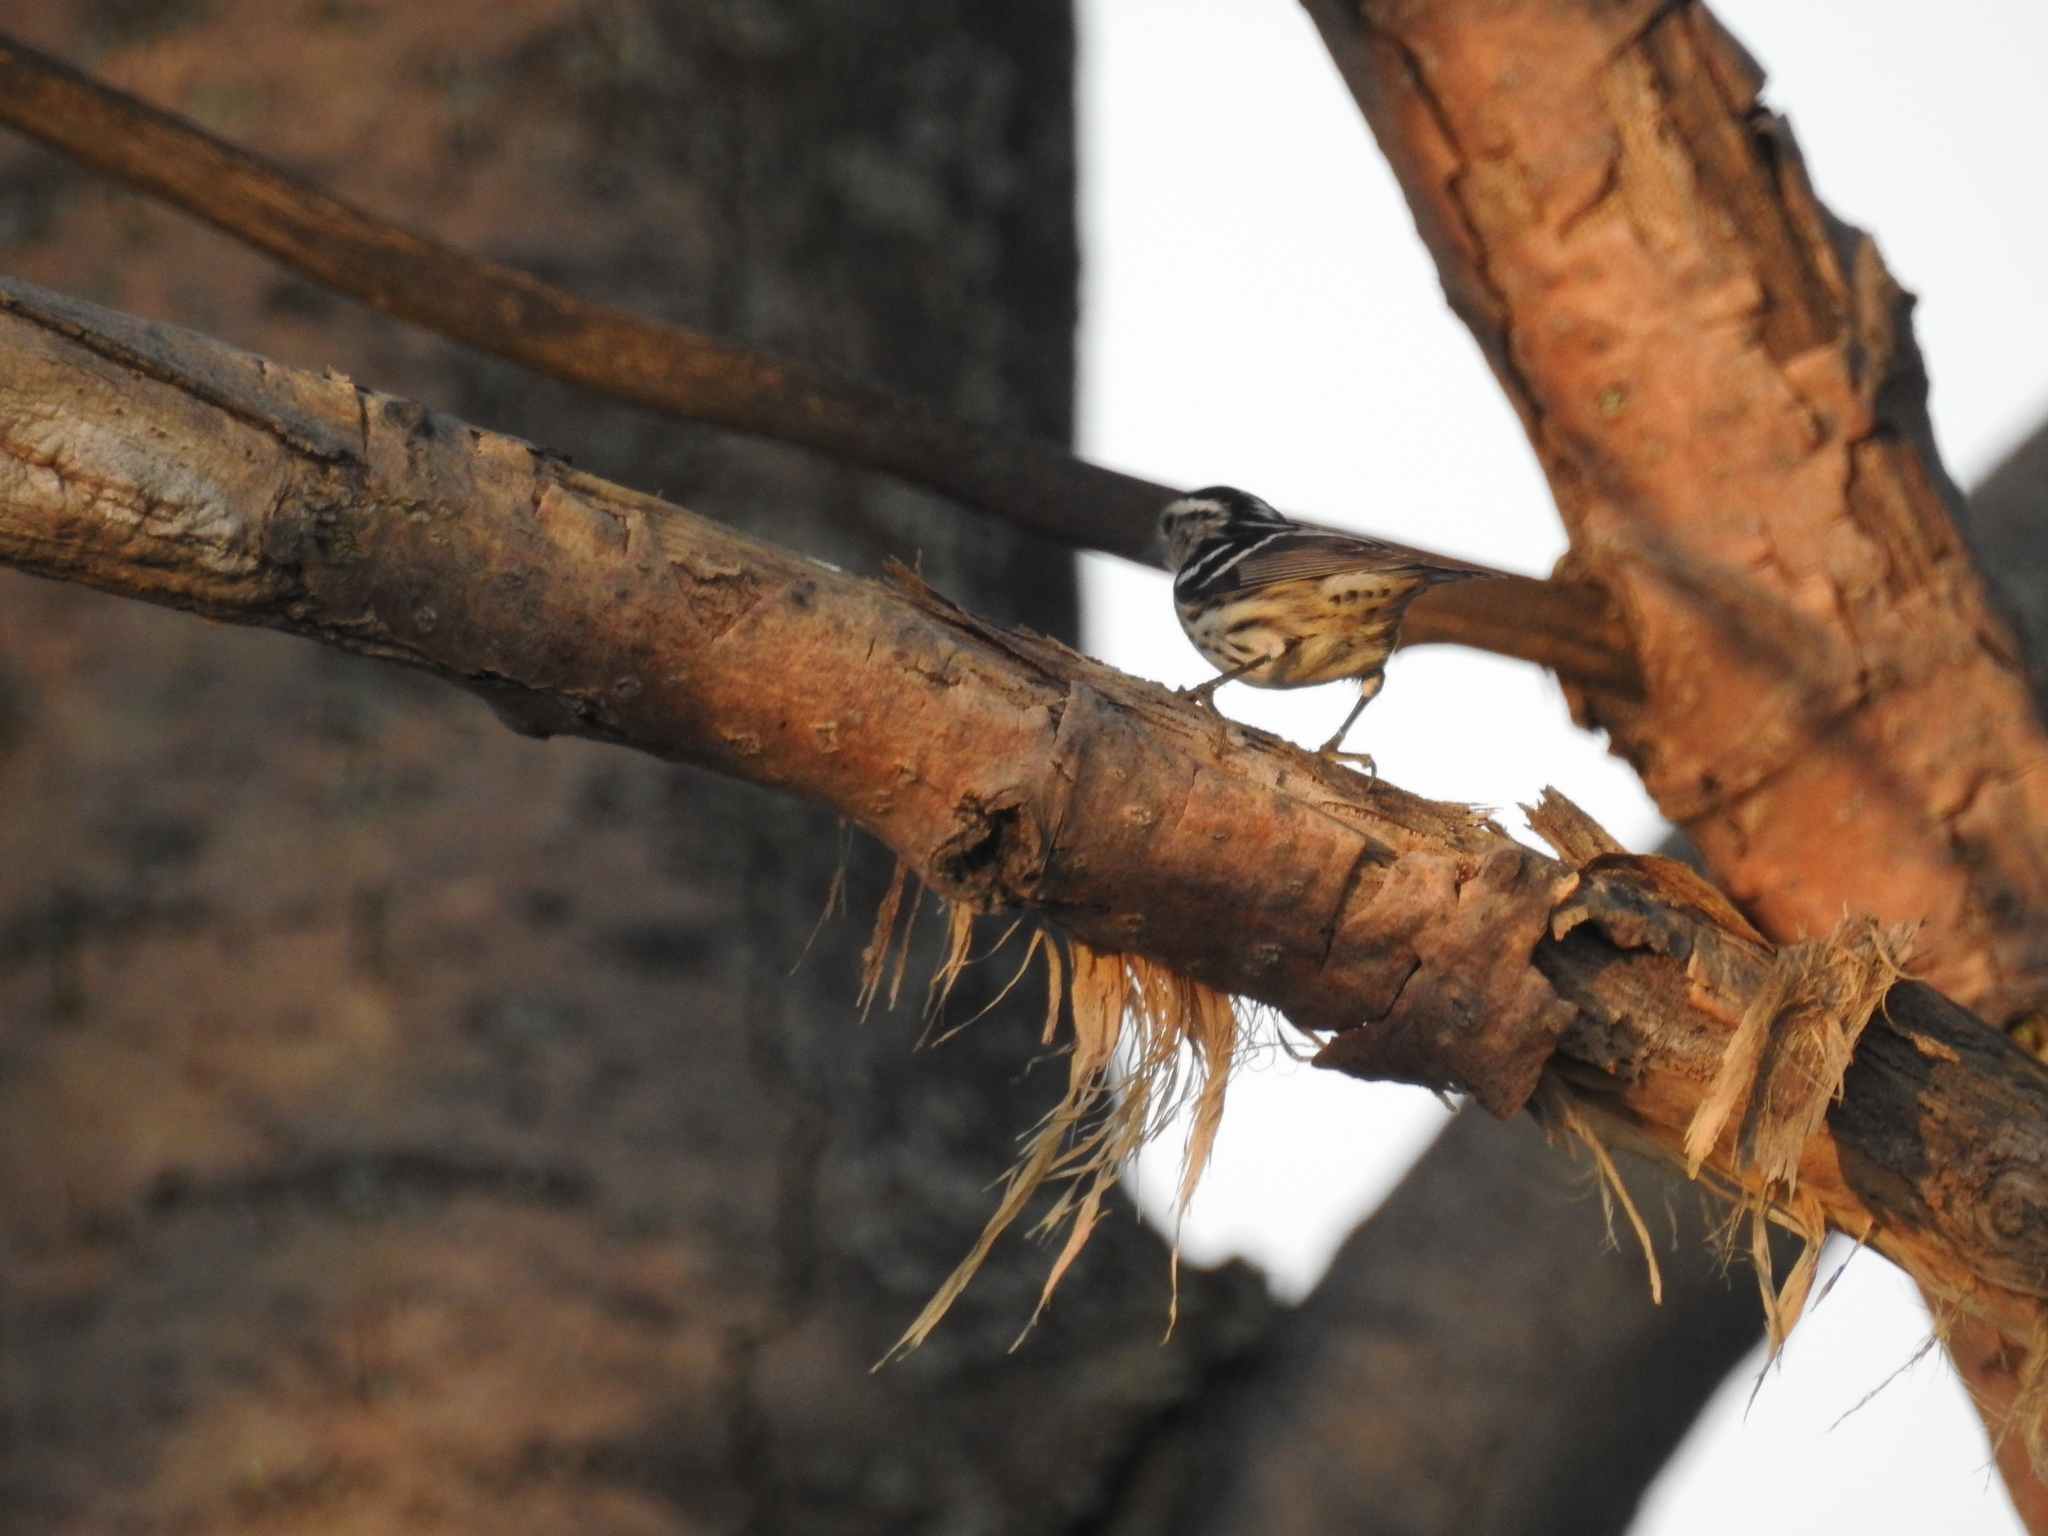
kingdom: Animalia
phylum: Chordata
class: Aves
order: Passeriformes
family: Parulidae
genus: Mniotilta
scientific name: Mniotilta varia
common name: Black-and-white warbler
